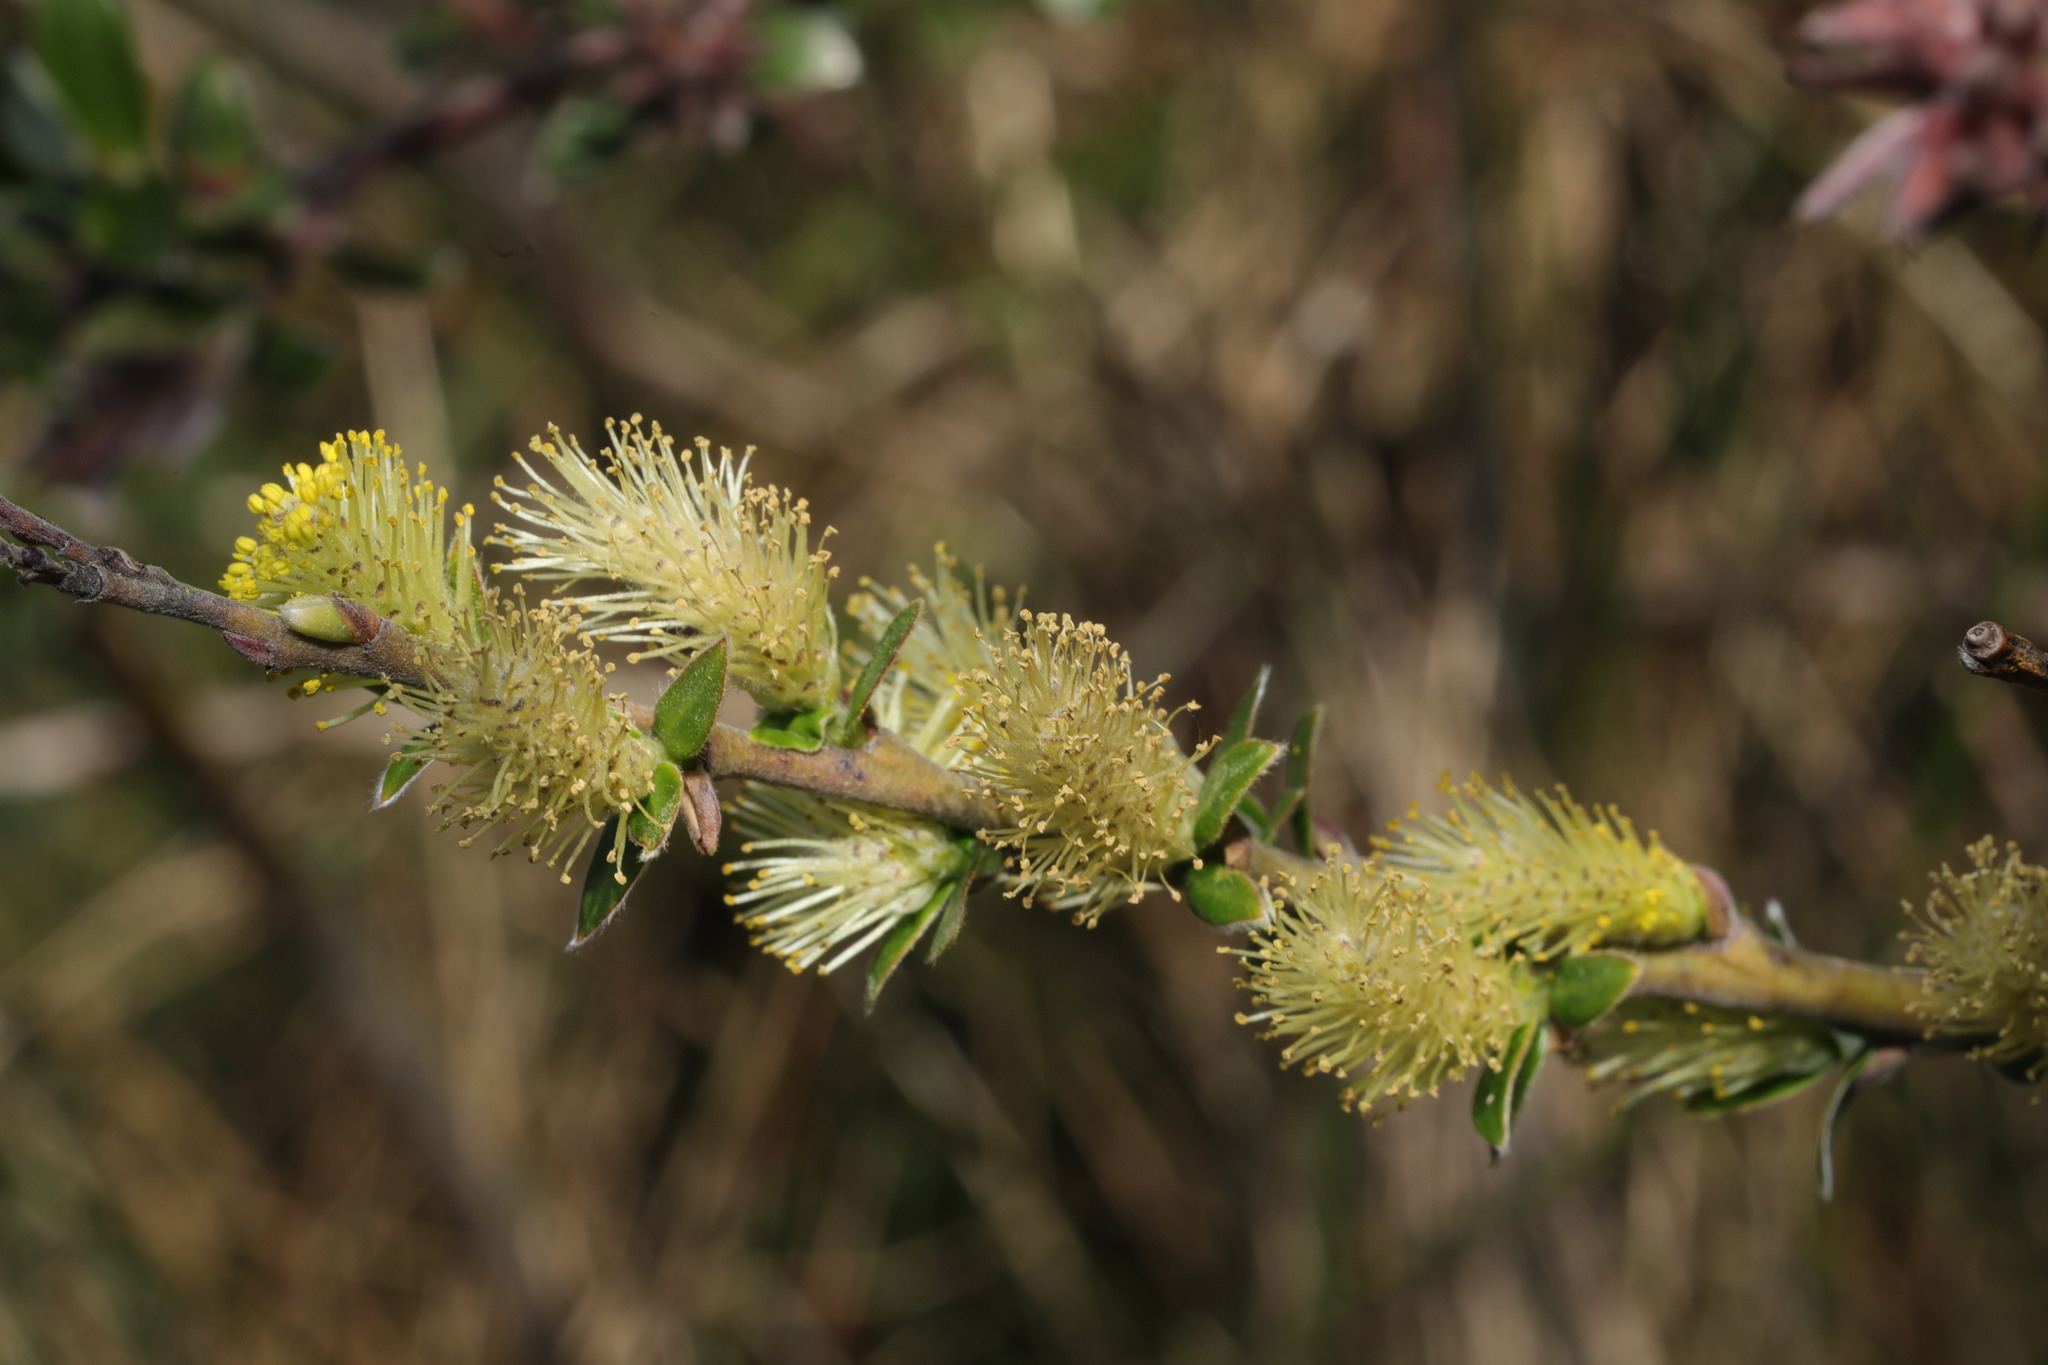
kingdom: Plantae
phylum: Tracheophyta
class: Magnoliopsida
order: Malpighiales
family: Salicaceae
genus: Salix
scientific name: Salix repens
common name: Creeping willow
